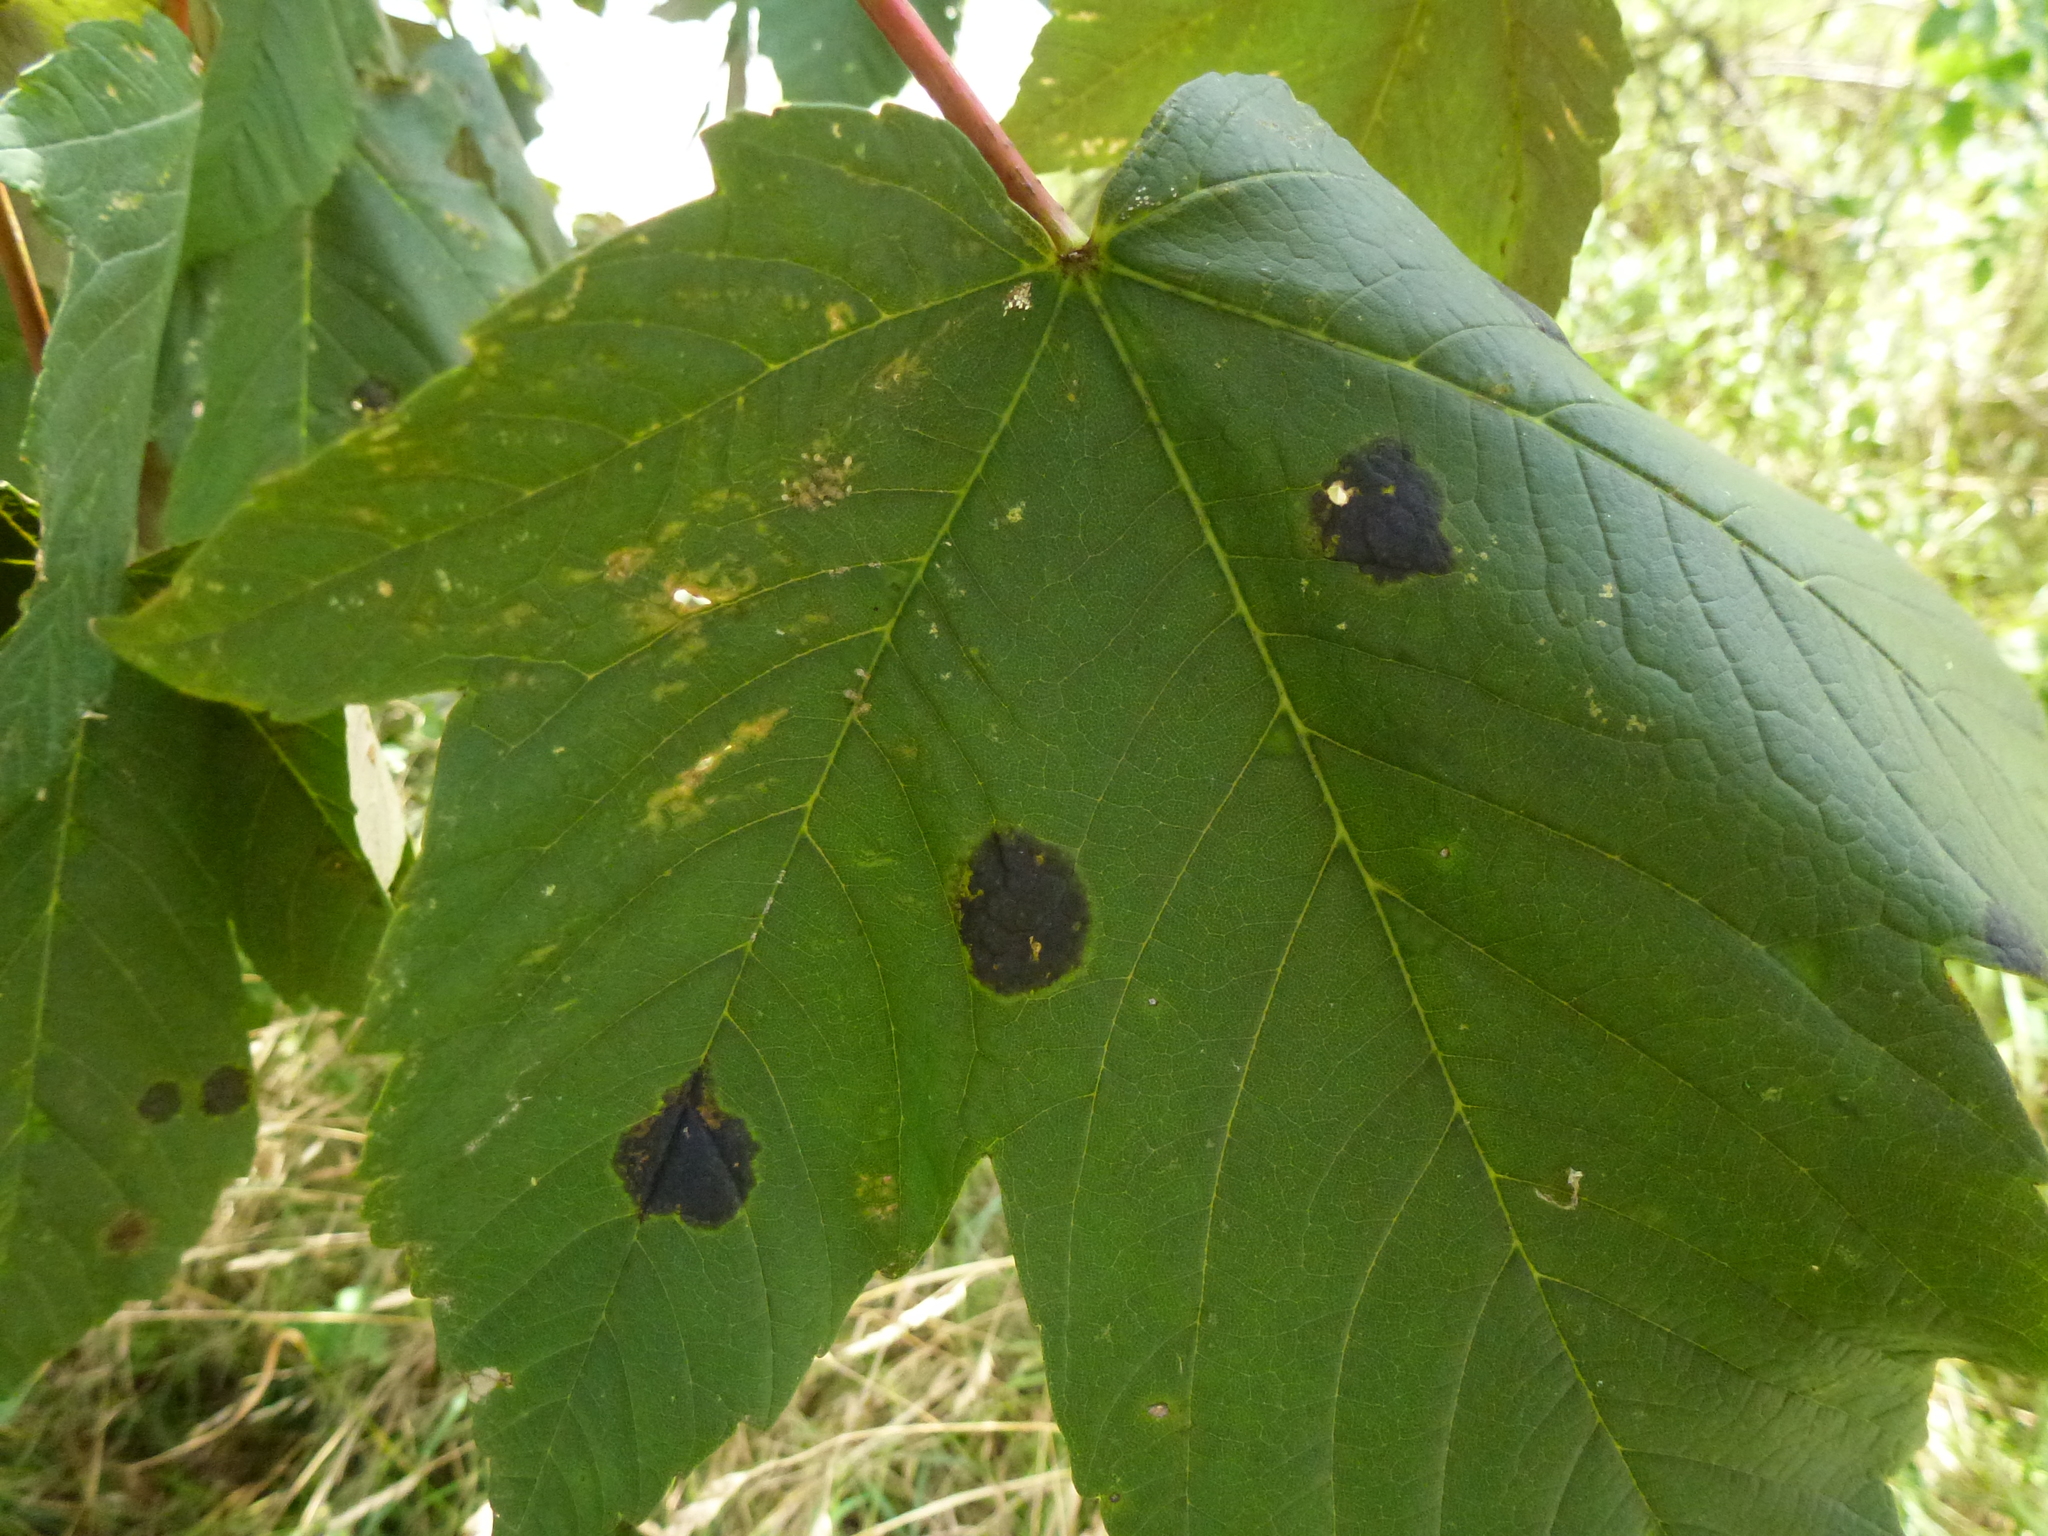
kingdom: Fungi
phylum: Ascomycota
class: Leotiomycetes
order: Rhytismatales
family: Rhytismataceae
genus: Rhytisma
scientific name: Rhytisma acerinum
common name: European tar spot
